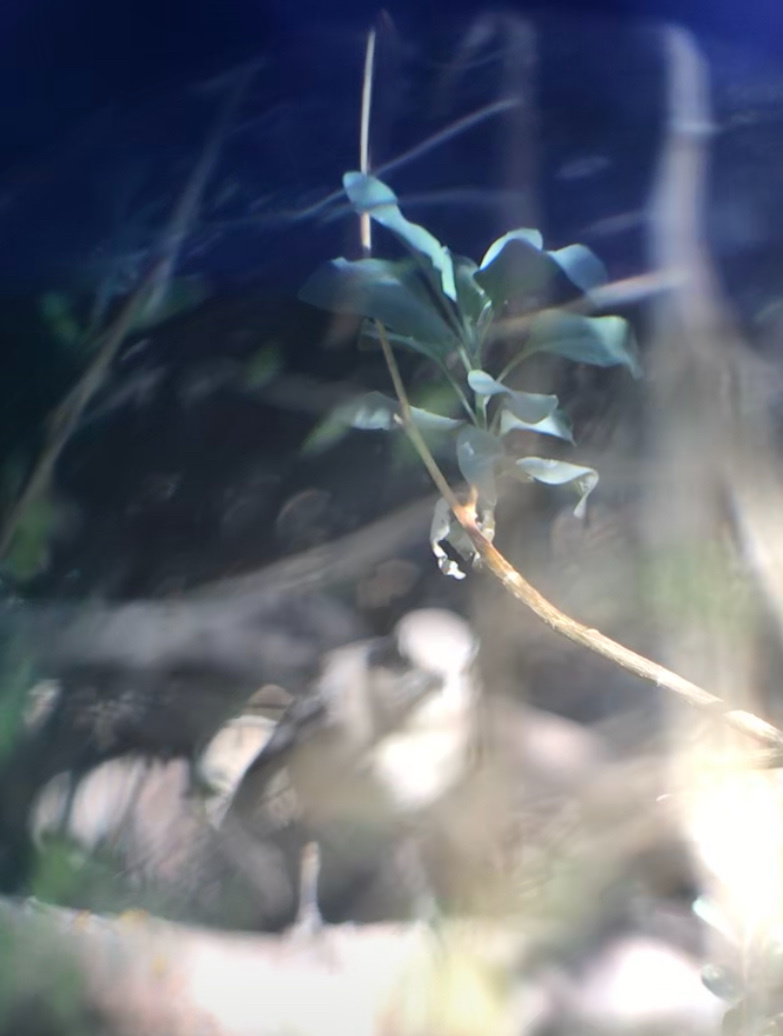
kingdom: Animalia
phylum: Chordata
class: Aves
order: Passeriformes
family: Mimidae
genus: Mimus
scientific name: Mimus polyglottos
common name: Northern mockingbird
